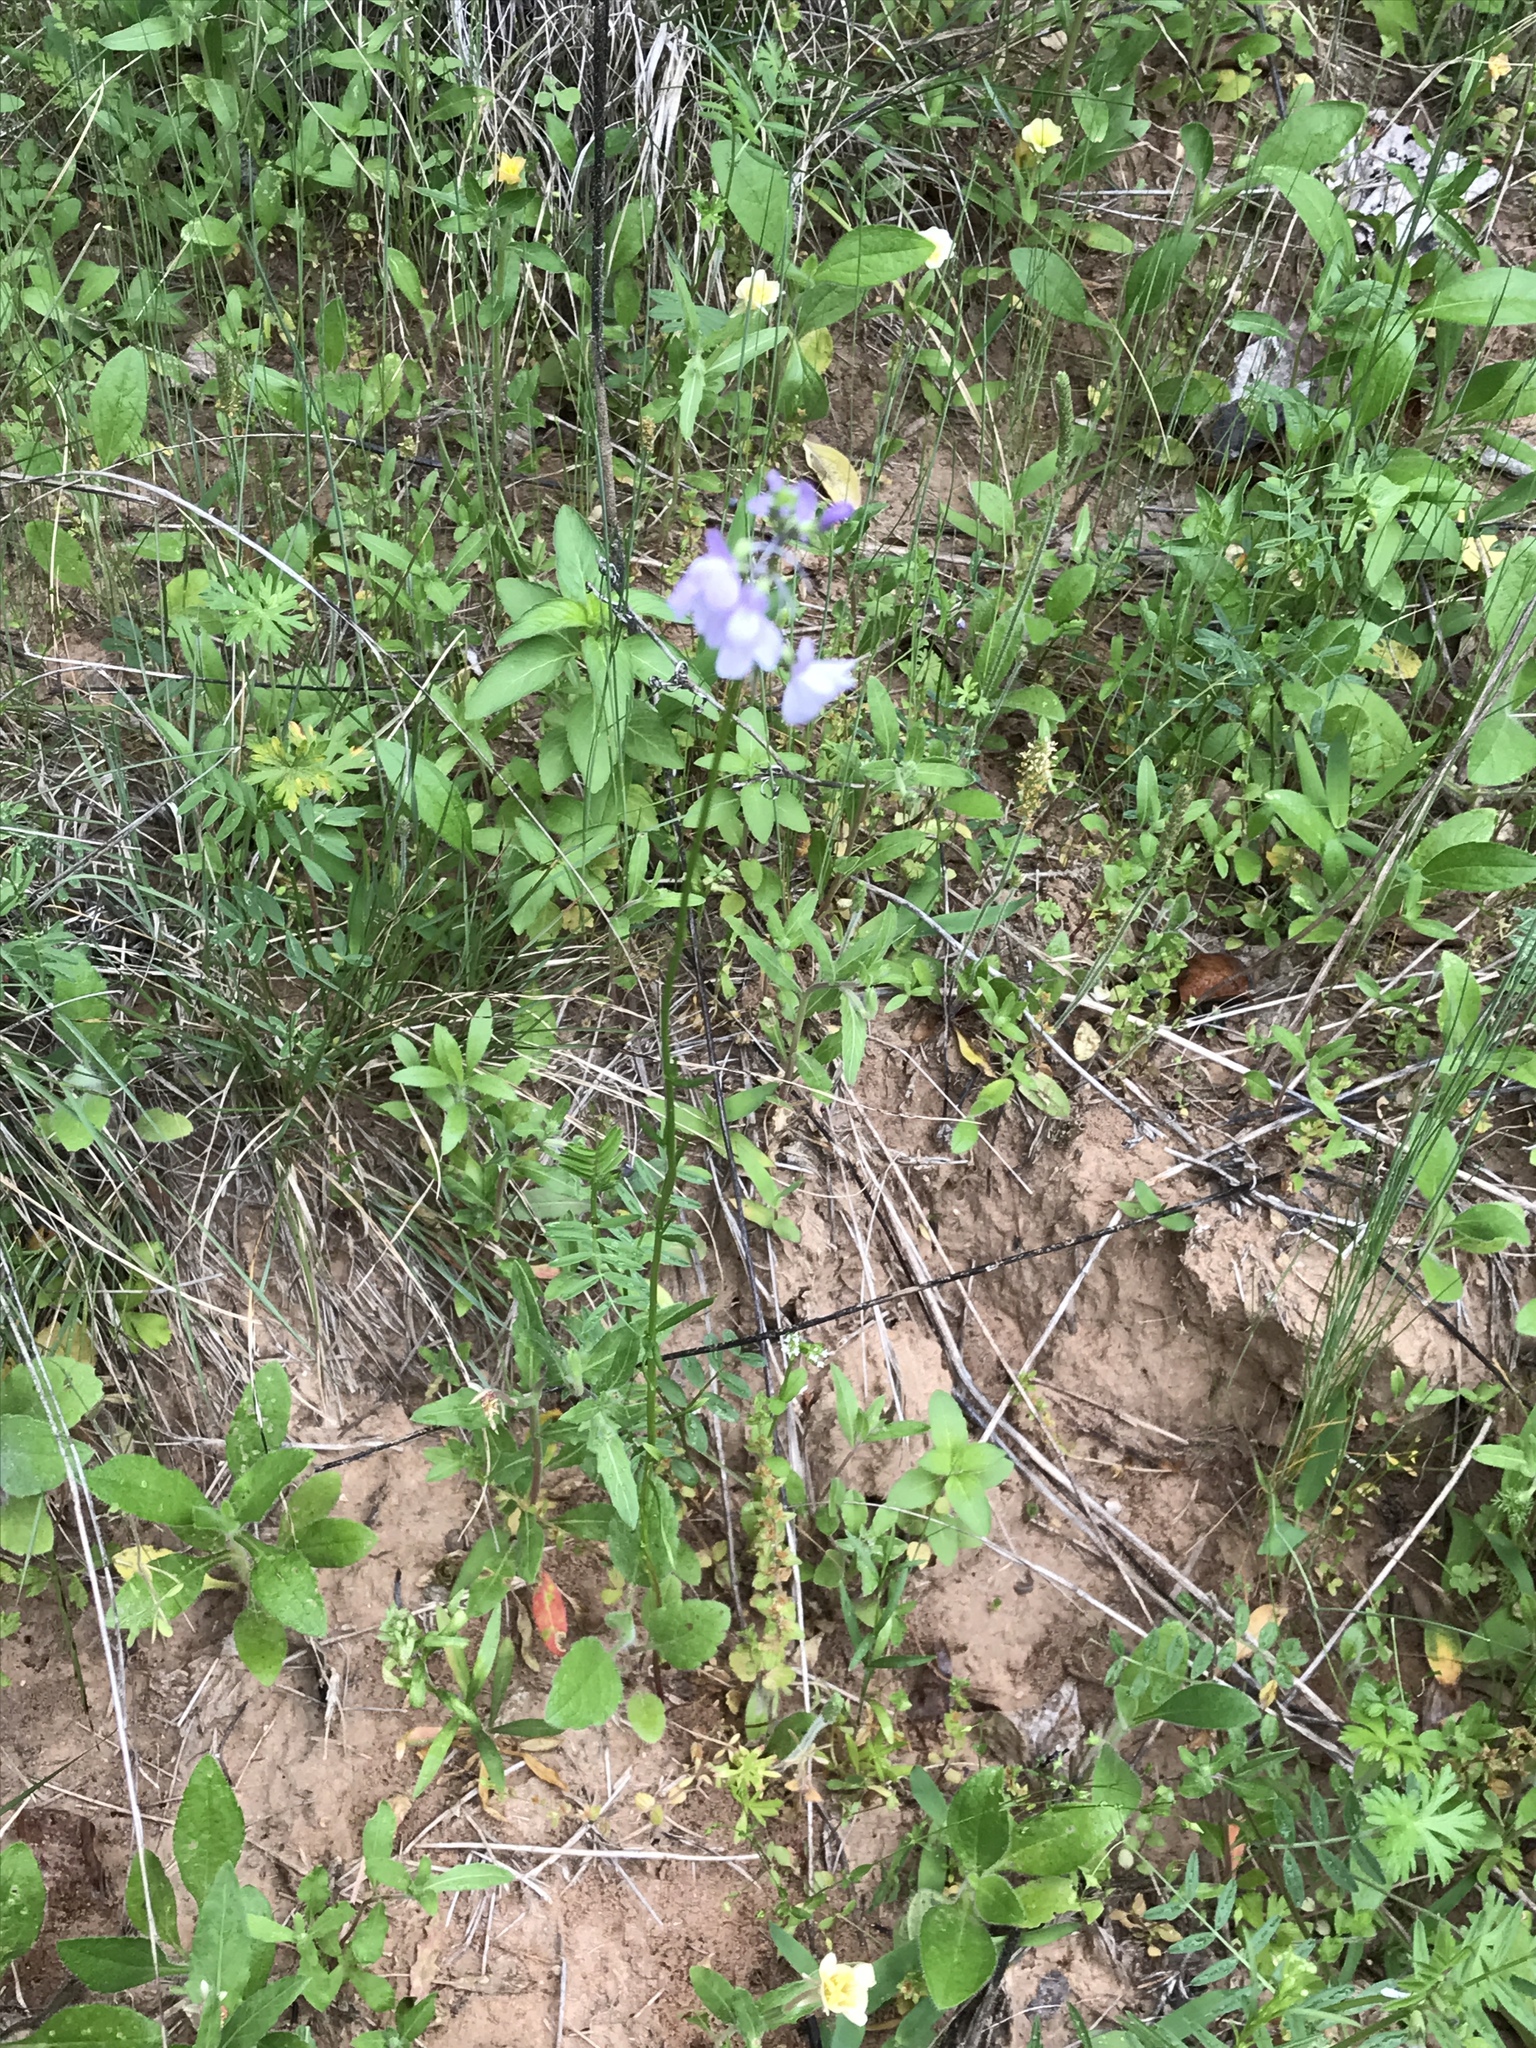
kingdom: Plantae
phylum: Tracheophyta
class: Magnoliopsida
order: Lamiales
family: Plantaginaceae
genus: Nuttallanthus
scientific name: Nuttallanthus texanus
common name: Texas toadflax
